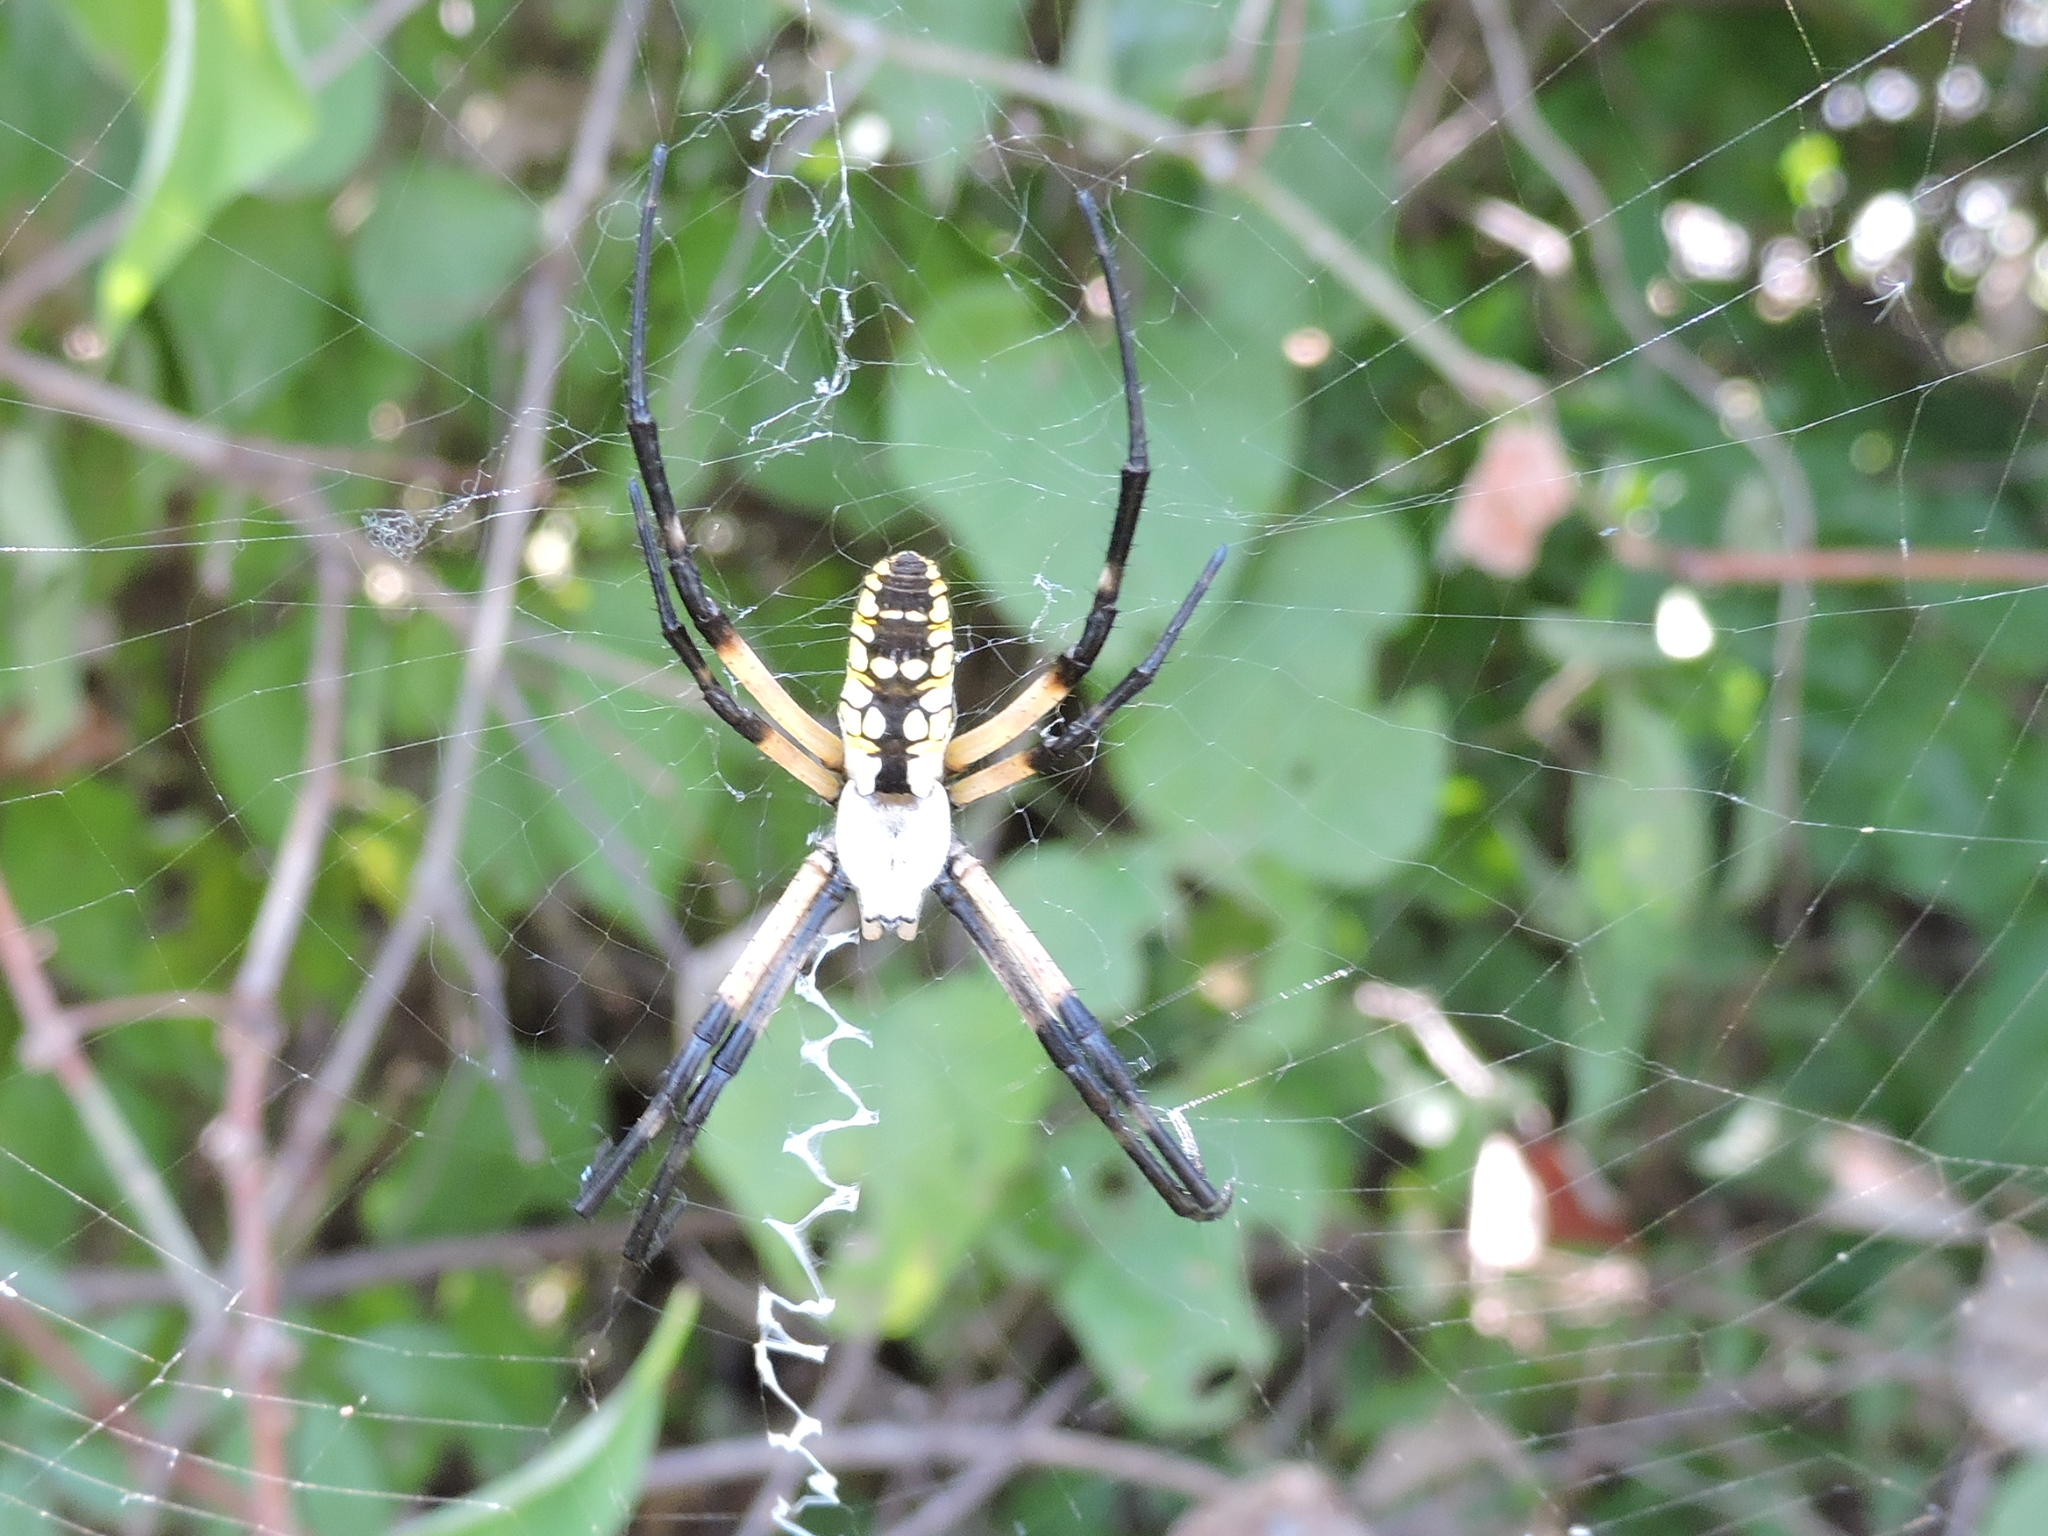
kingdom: Animalia
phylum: Arthropoda
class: Arachnida
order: Araneae
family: Araneidae
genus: Argiope
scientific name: Argiope aurantia
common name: Orb weavers
